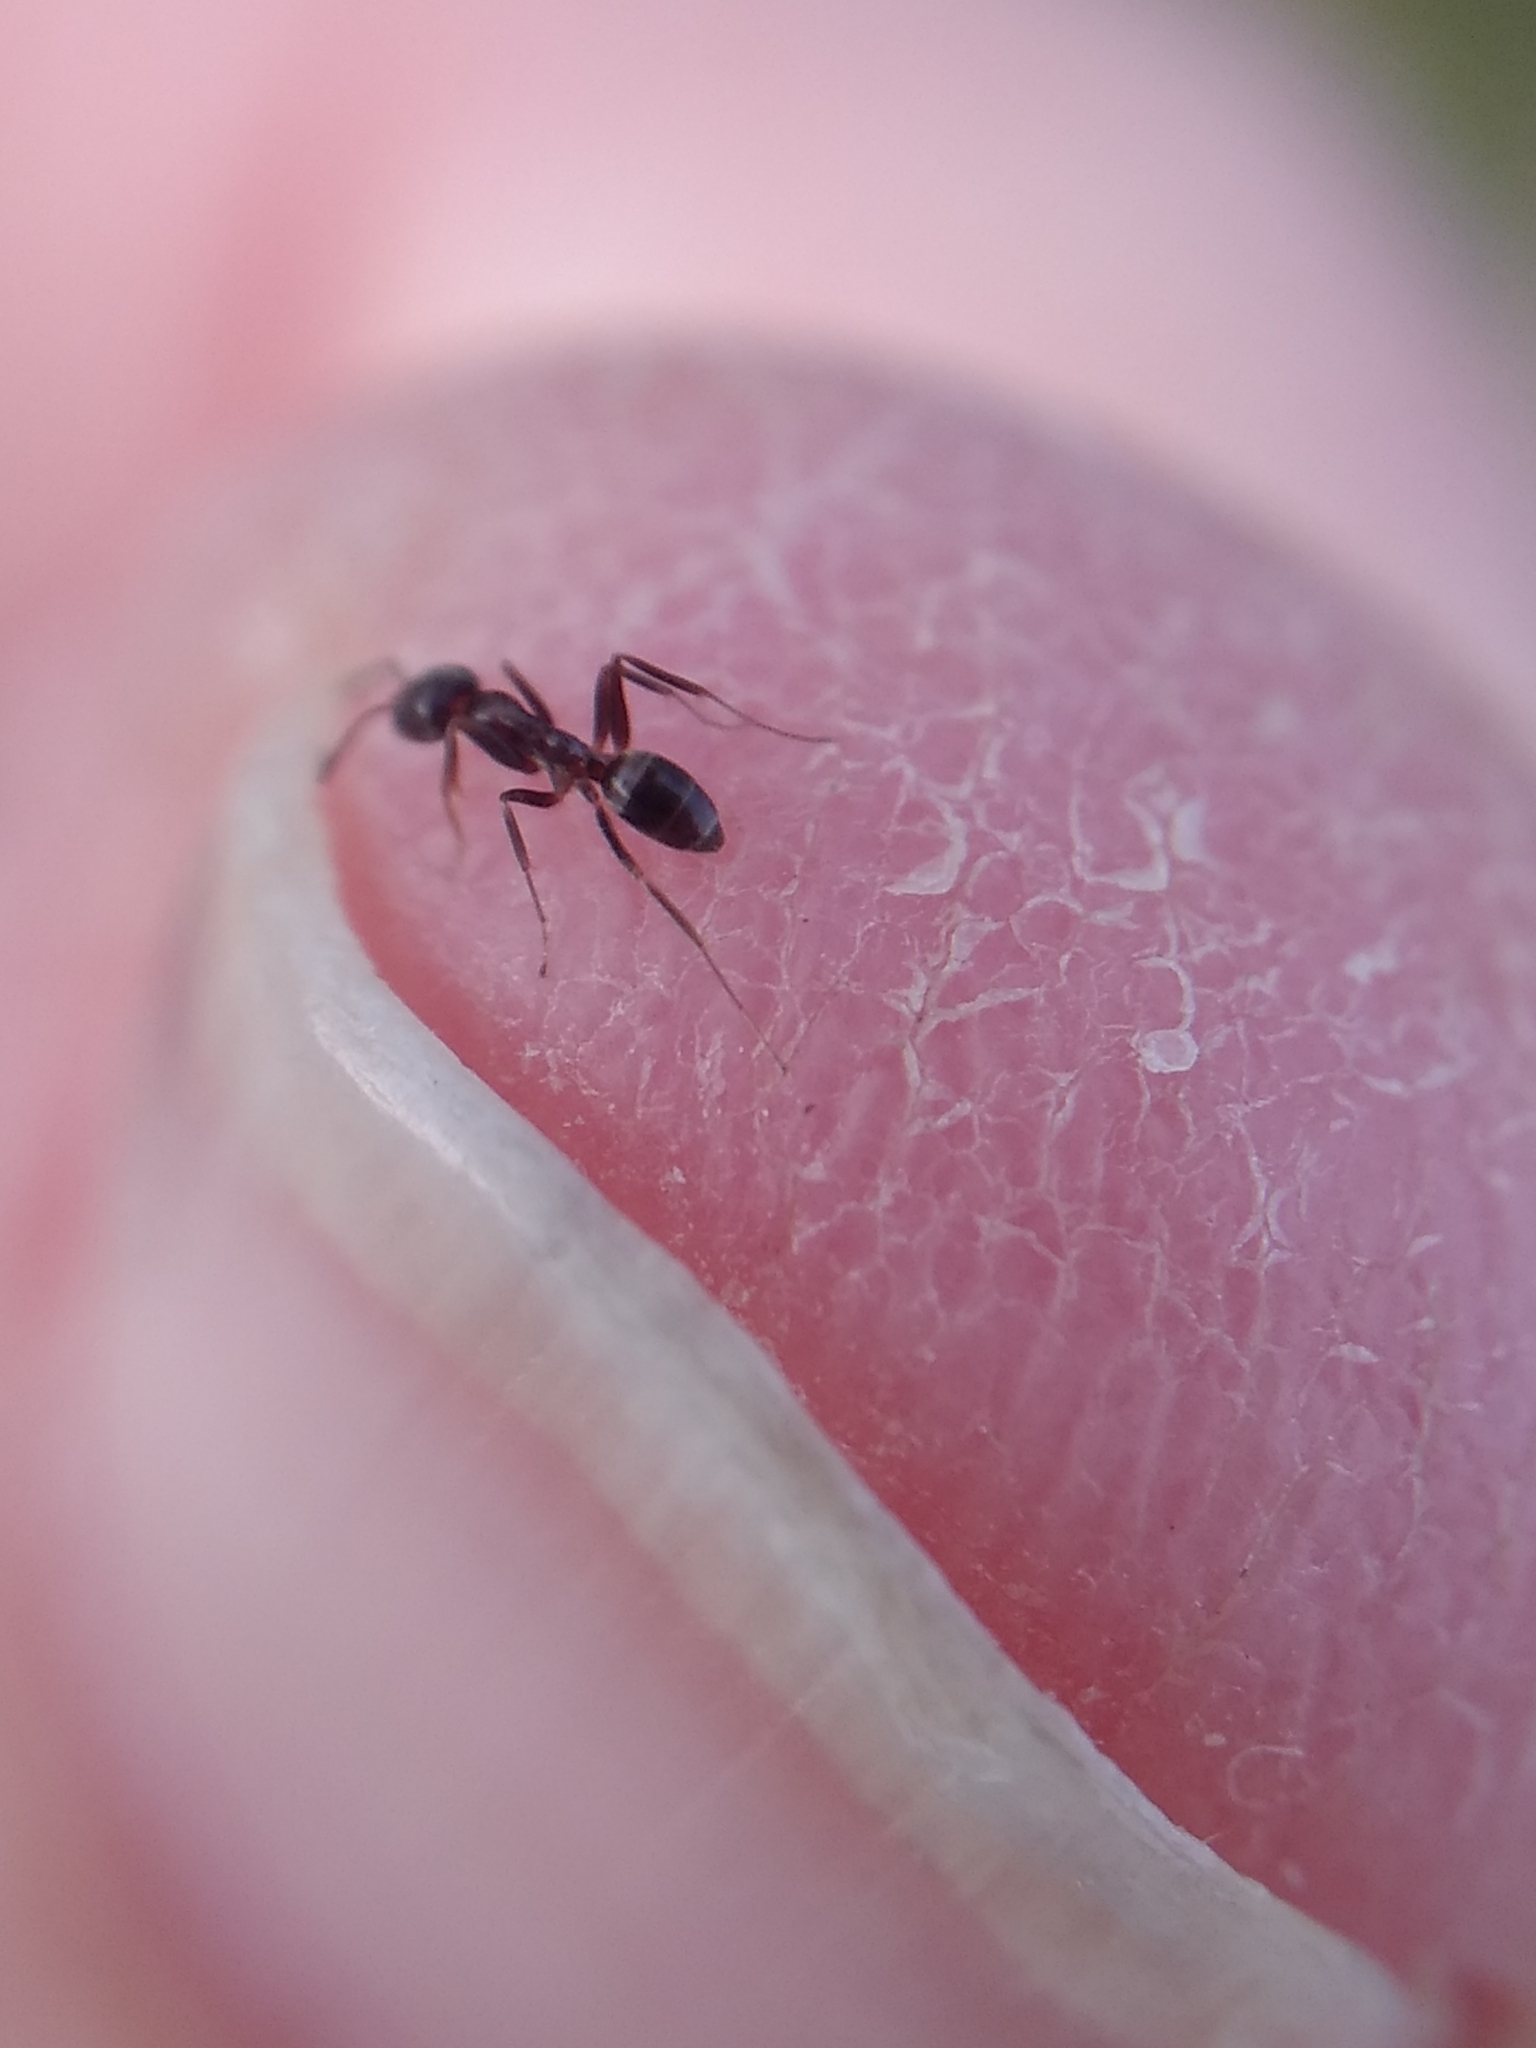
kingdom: Animalia
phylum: Arthropoda
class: Insecta
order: Hymenoptera
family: Formicidae
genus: Linepithema
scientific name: Linepithema humile
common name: Argentine ant
